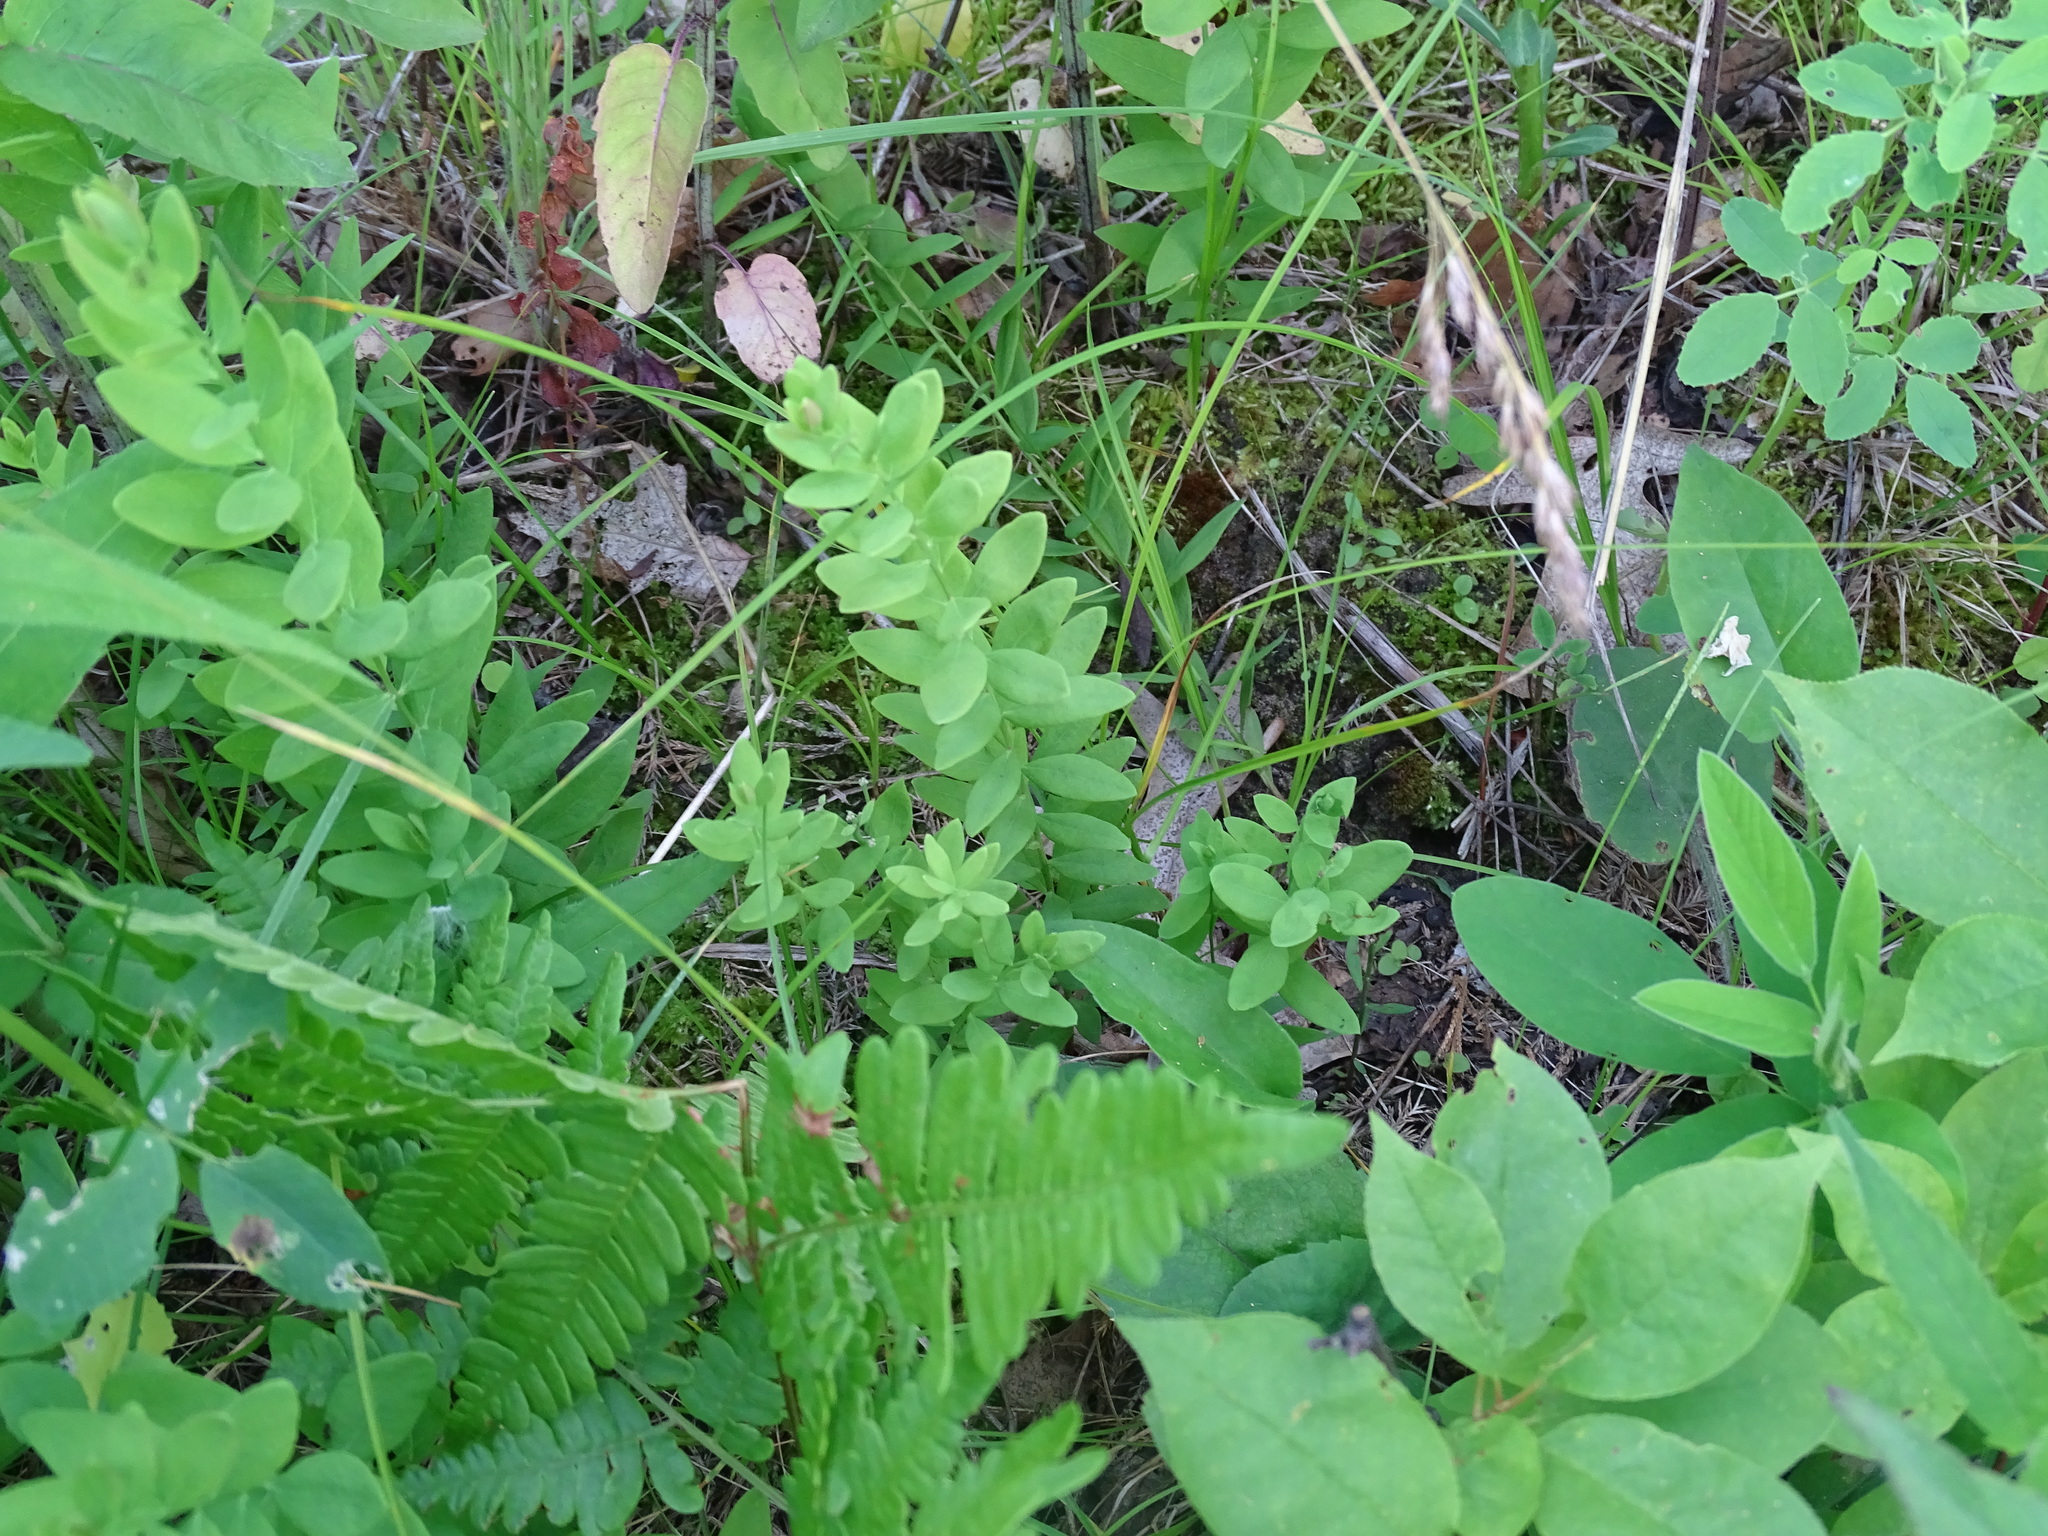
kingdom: Plantae
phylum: Tracheophyta
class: Magnoliopsida
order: Santalales
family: Comandraceae
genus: Comandra
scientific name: Comandra umbellata
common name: Bastard toadflax
